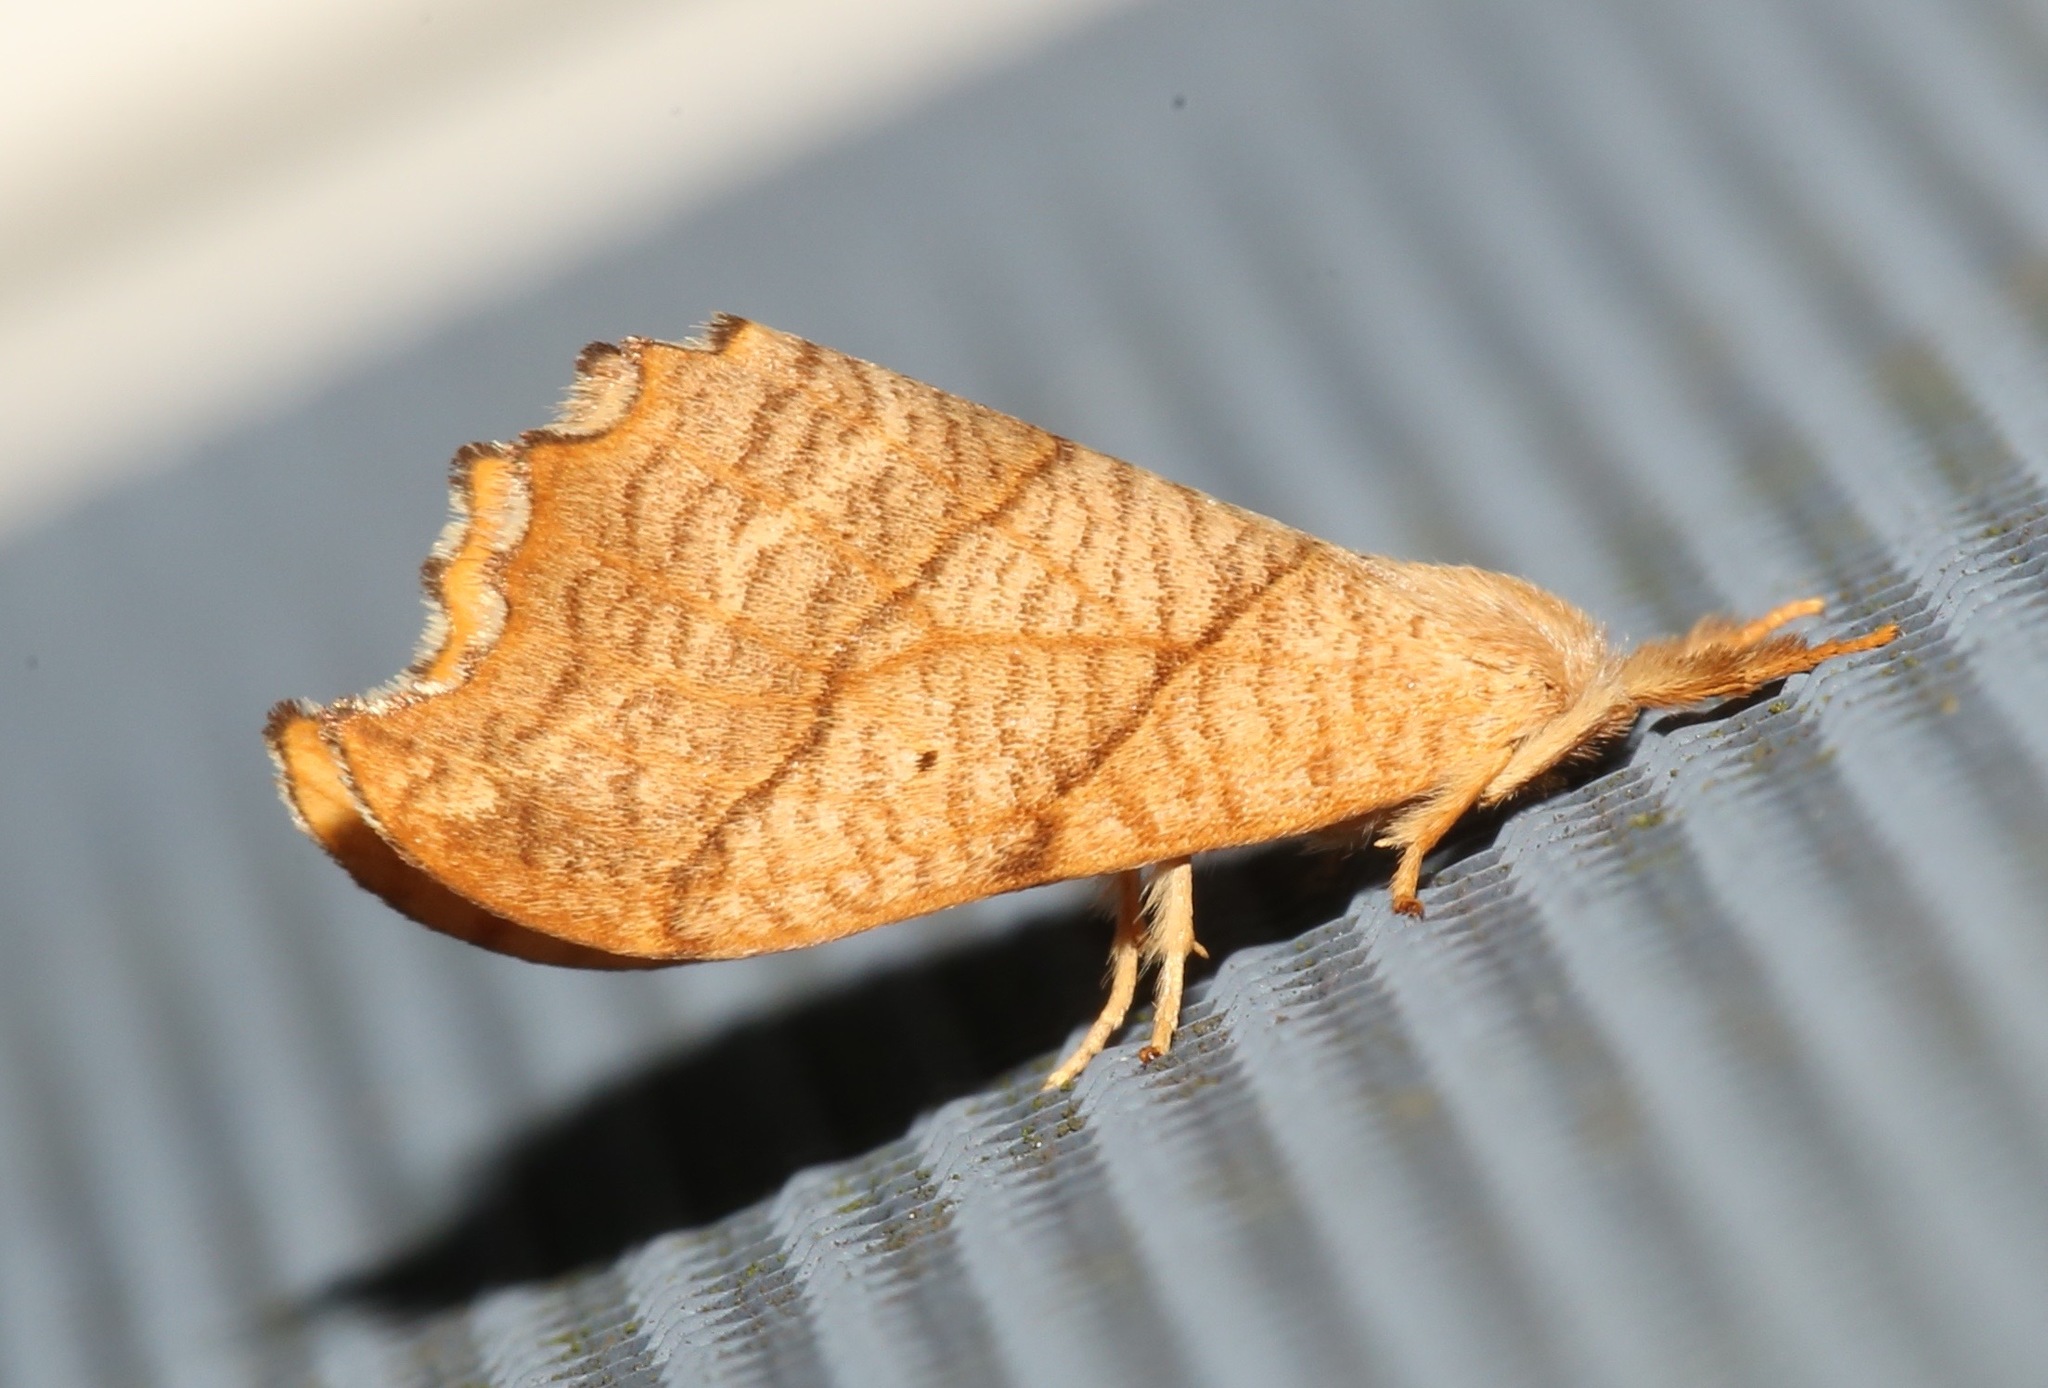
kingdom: Animalia
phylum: Arthropoda
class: Insecta
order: Lepidoptera
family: Drepanidae
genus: Falcaria
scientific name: Falcaria bilineata
